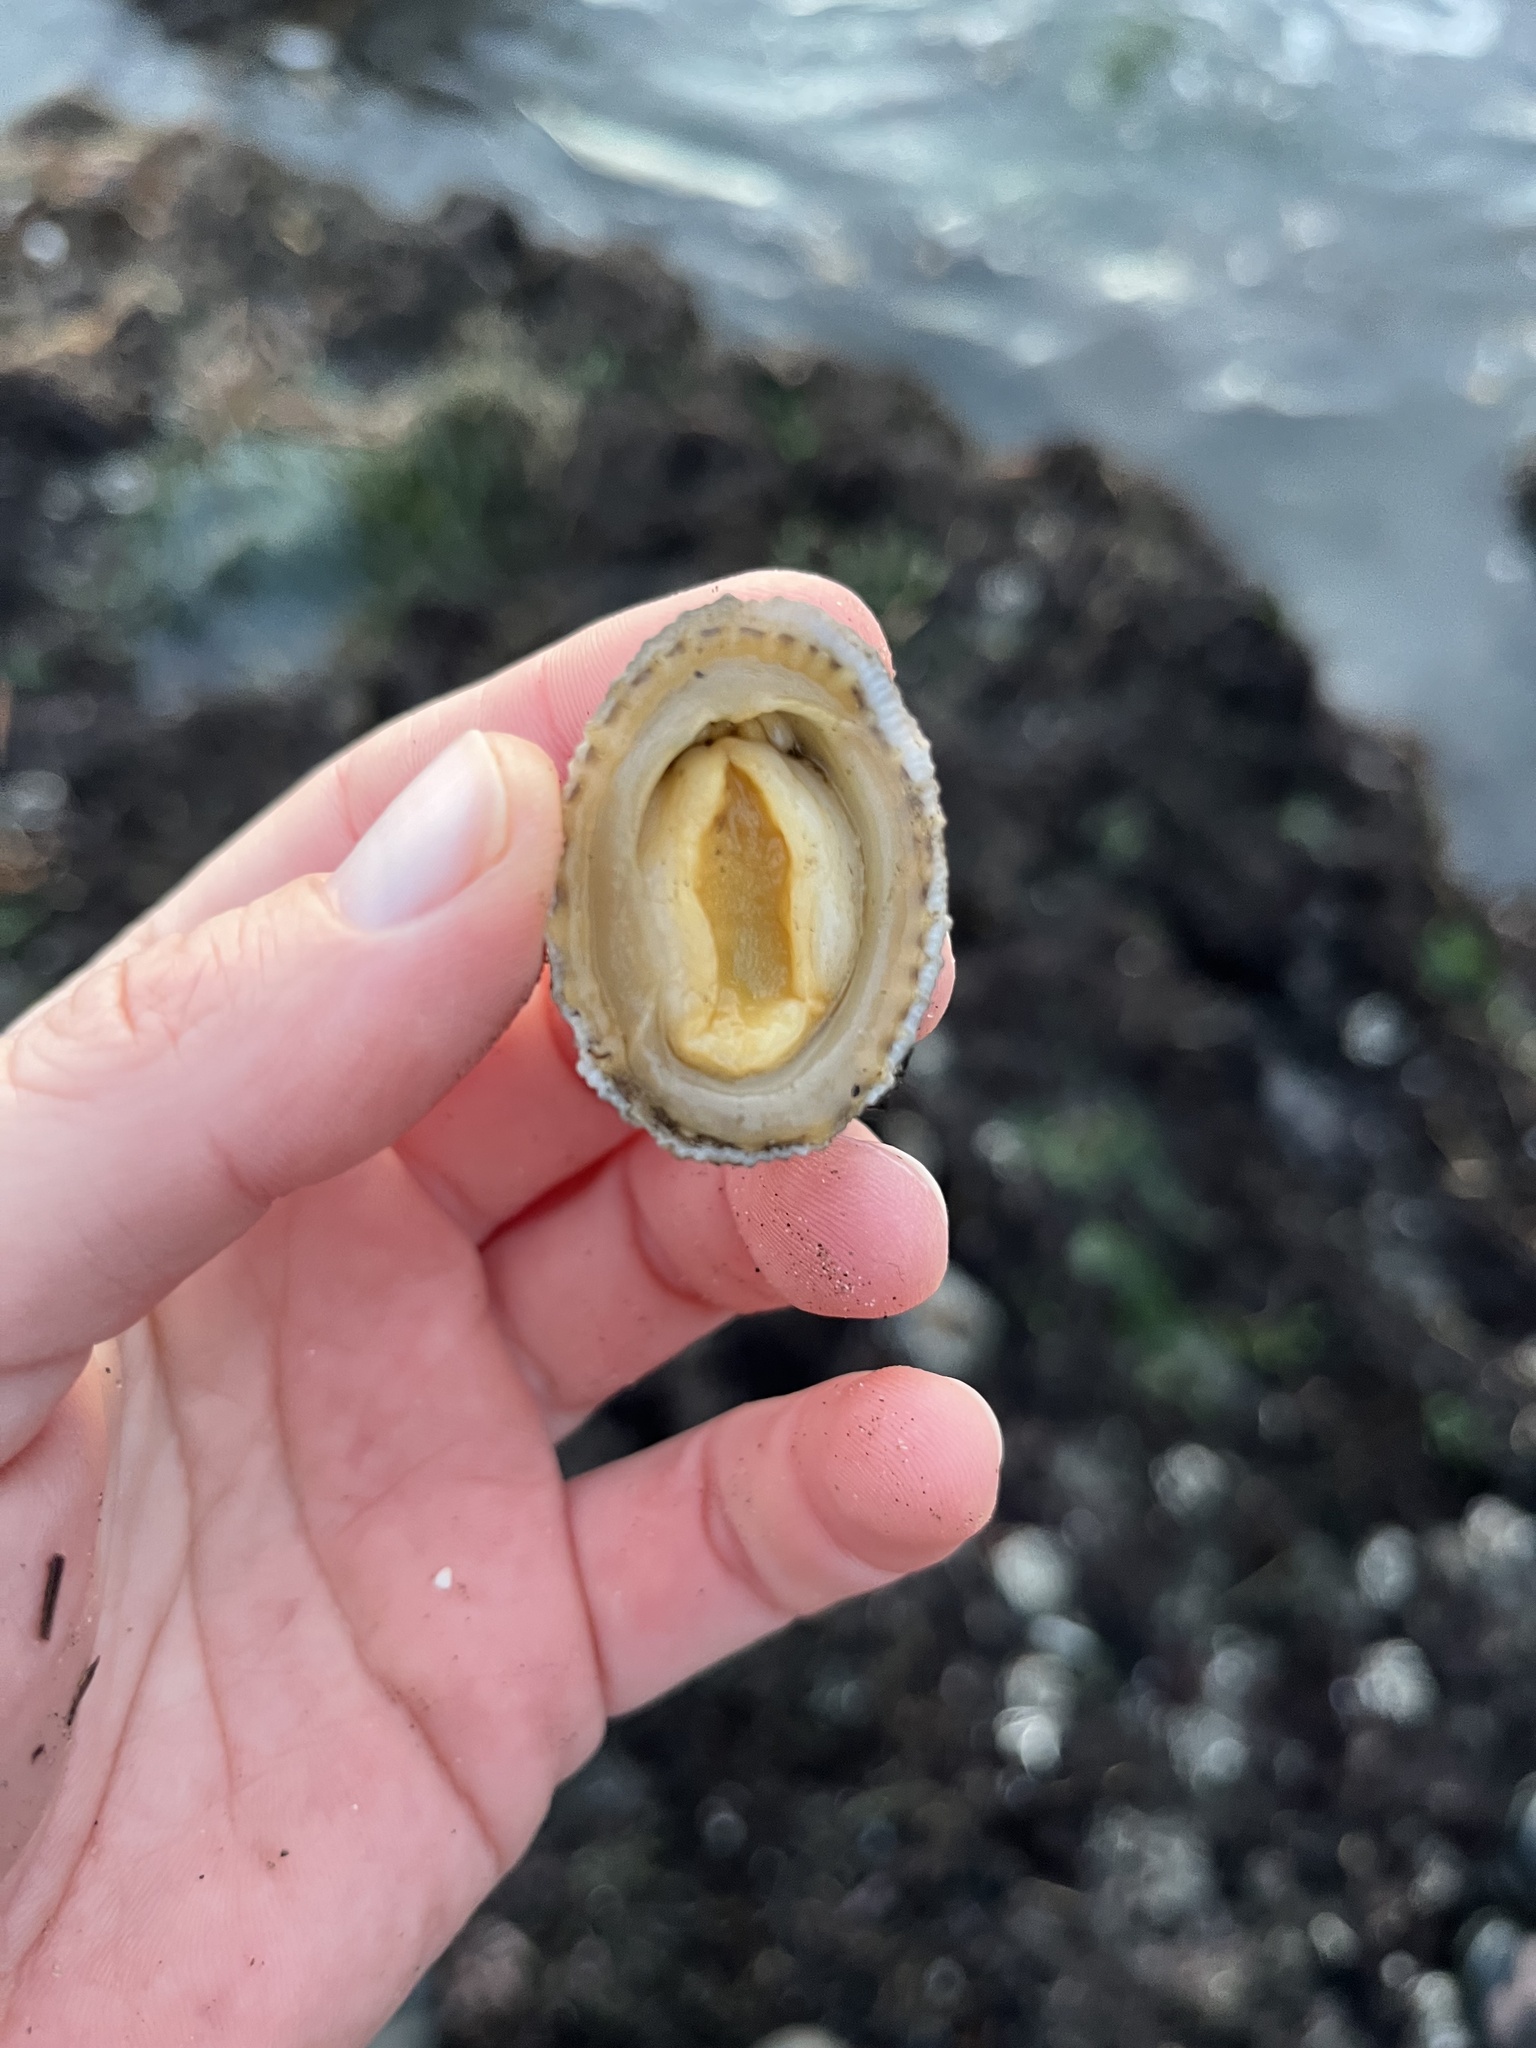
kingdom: Animalia
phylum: Mollusca
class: Gastropoda
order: Lepetellida
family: Fissurellidae
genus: Diodora
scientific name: Diodora aspera
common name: Rough keyhole limpet
